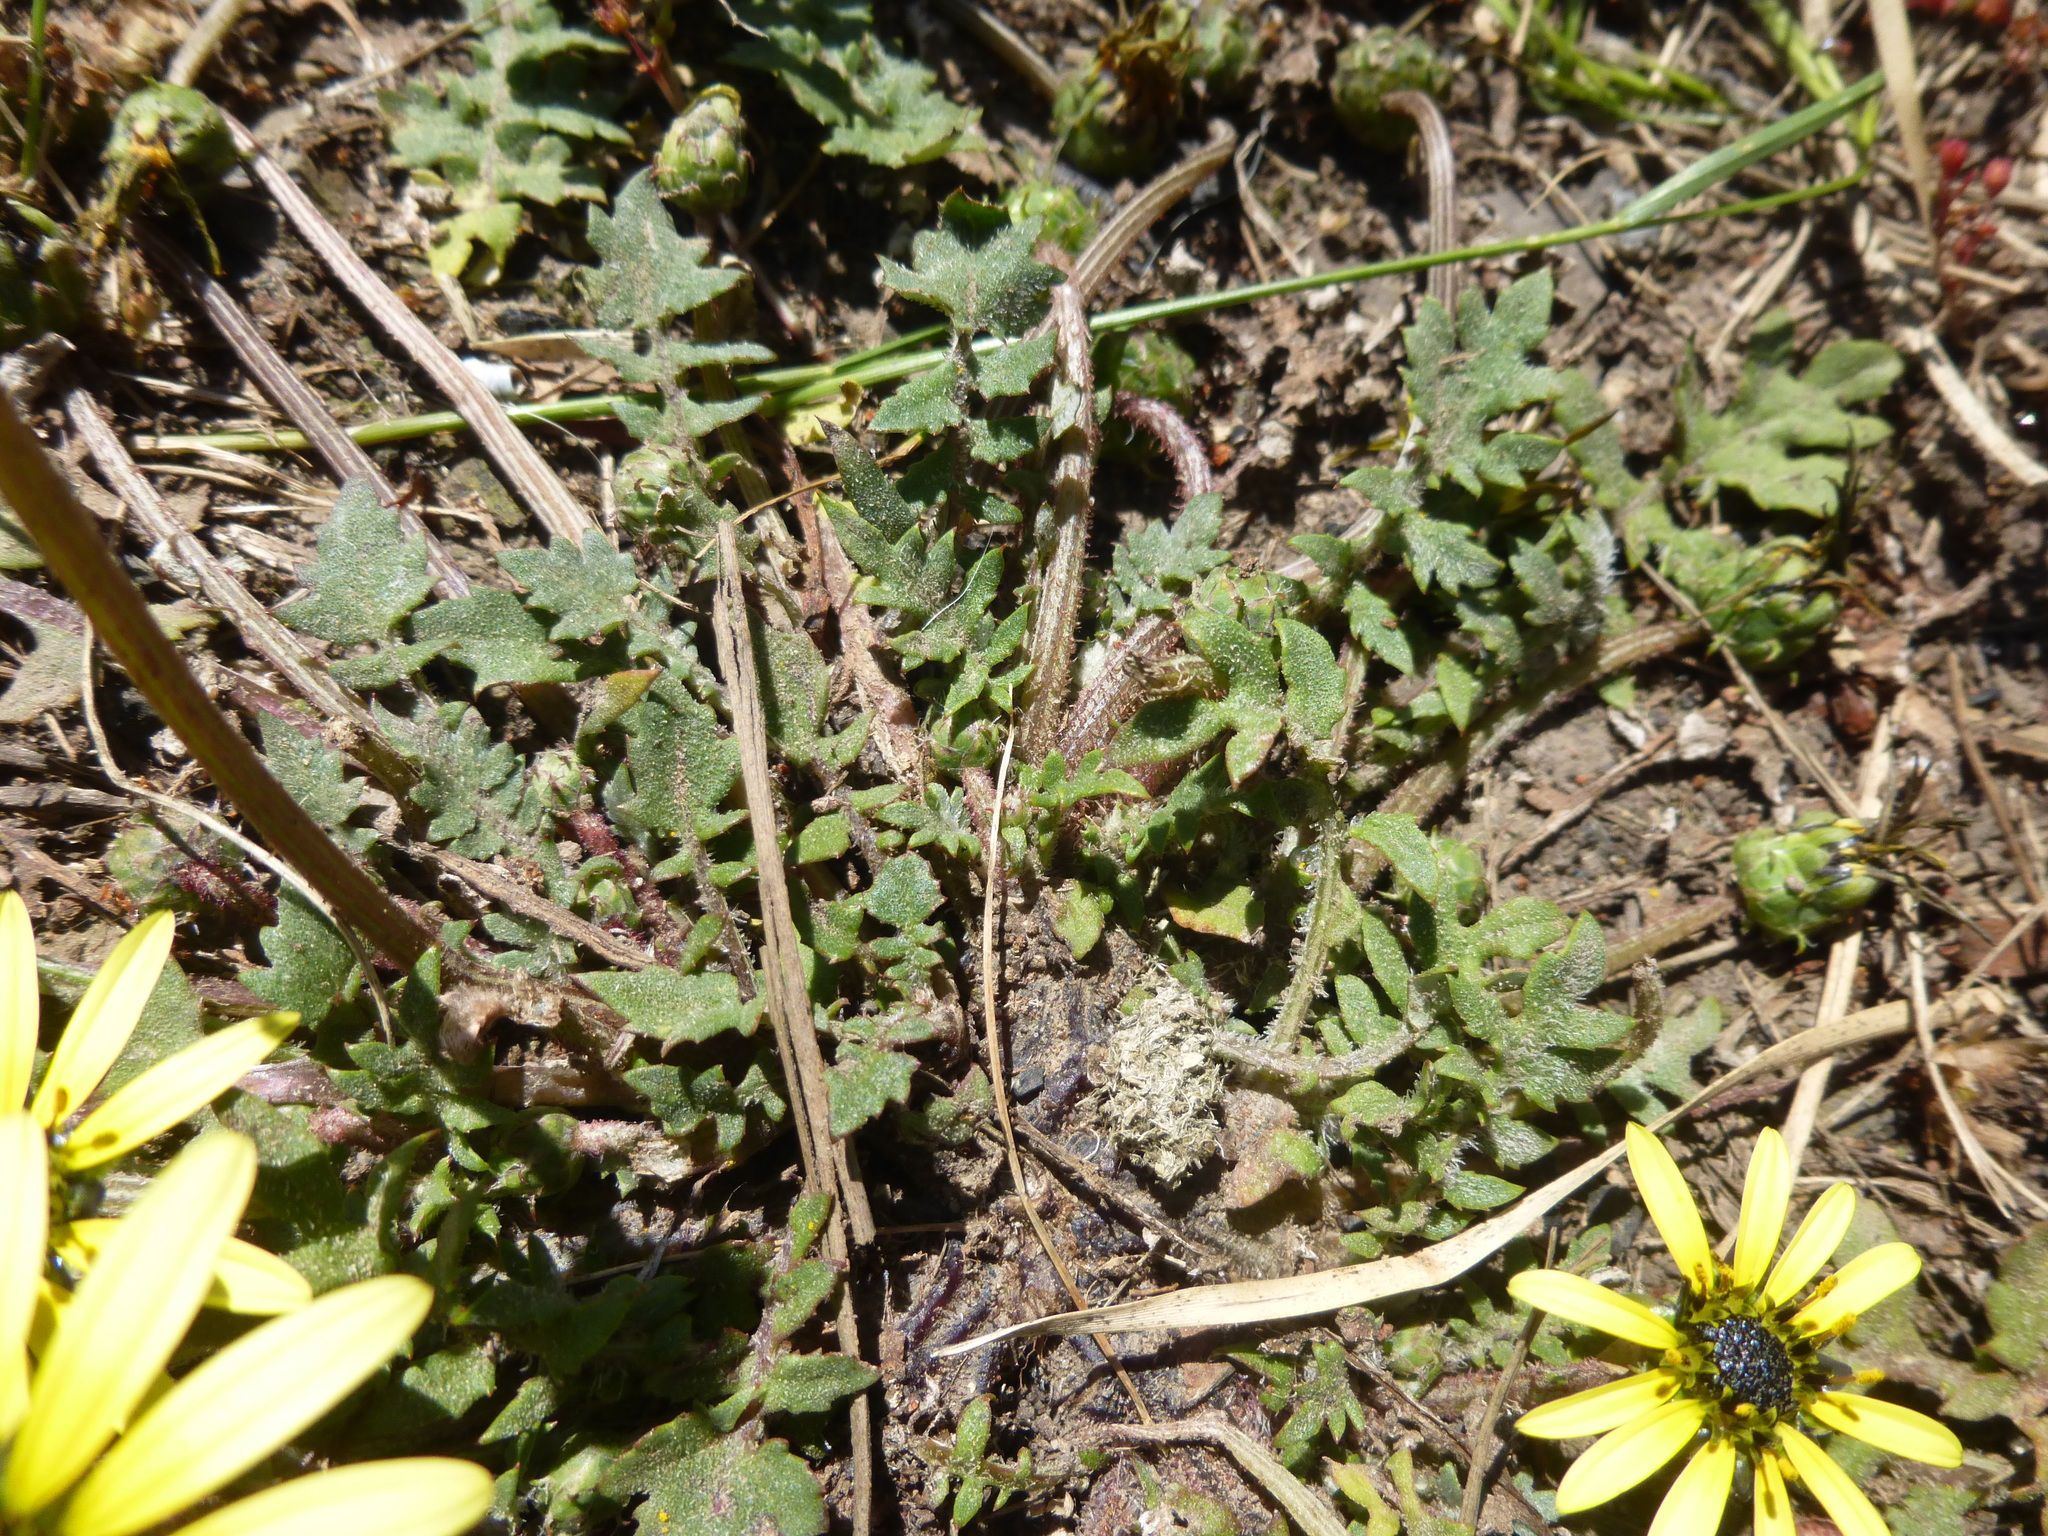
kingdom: Plantae
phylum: Tracheophyta
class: Magnoliopsida
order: Asterales
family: Asteraceae
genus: Arctotheca
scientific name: Arctotheca calendula
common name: Capeweed
